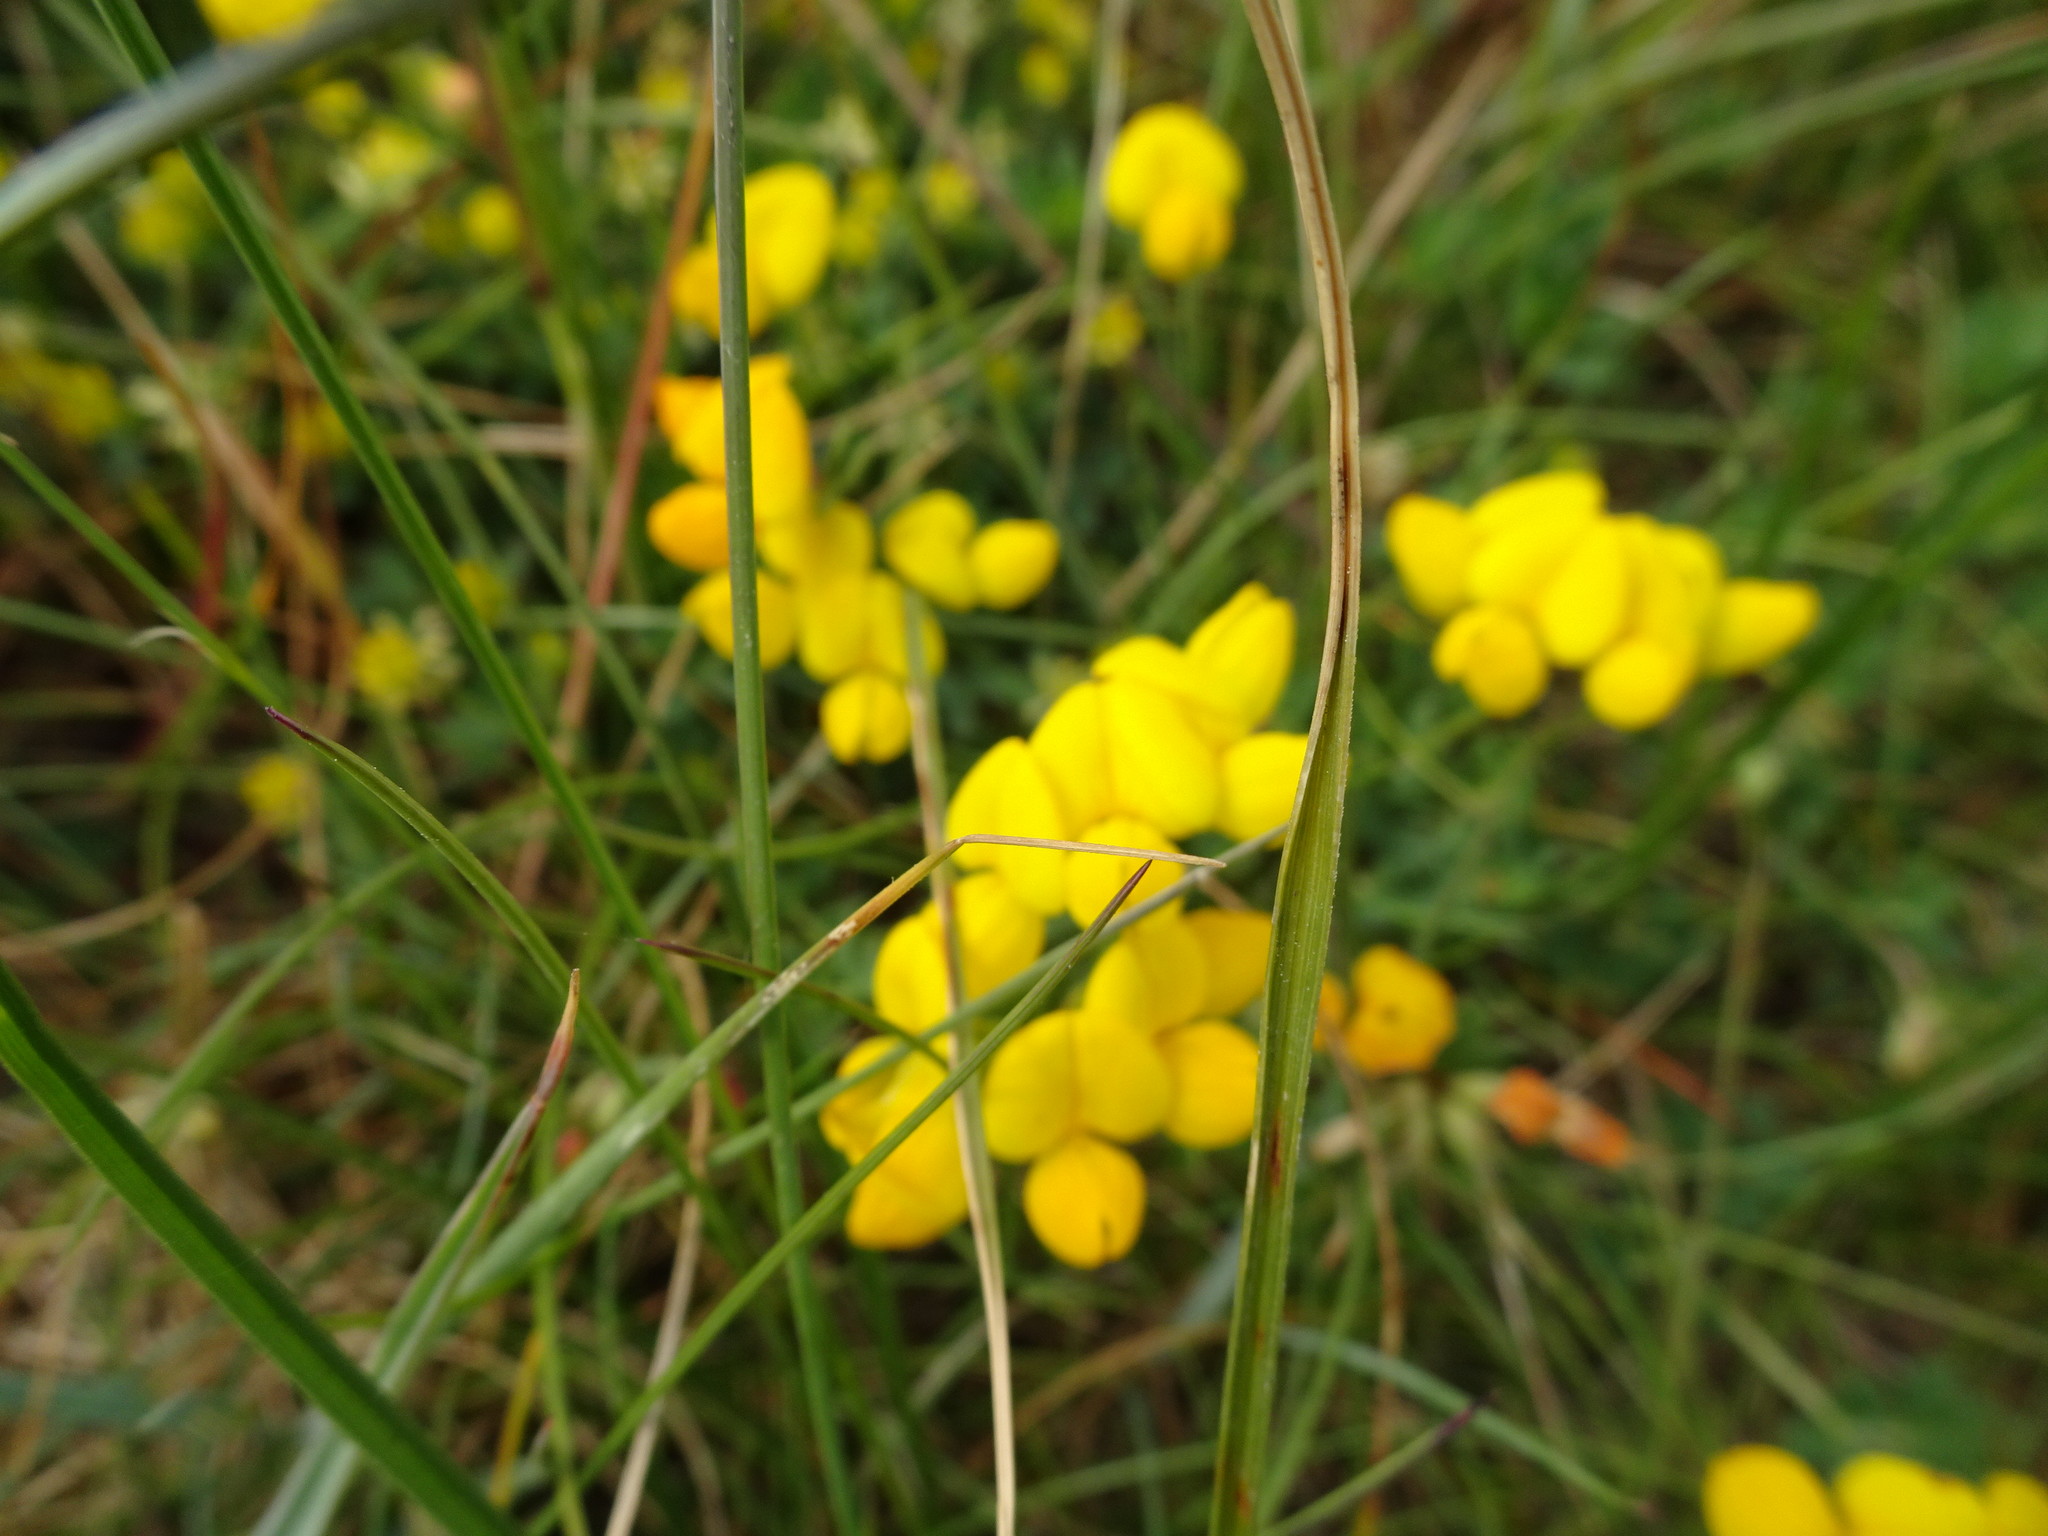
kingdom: Plantae
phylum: Tracheophyta
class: Magnoliopsida
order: Fabales
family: Fabaceae
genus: Lotus
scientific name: Lotus corniculatus
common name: Common bird's-foot-trefoil
